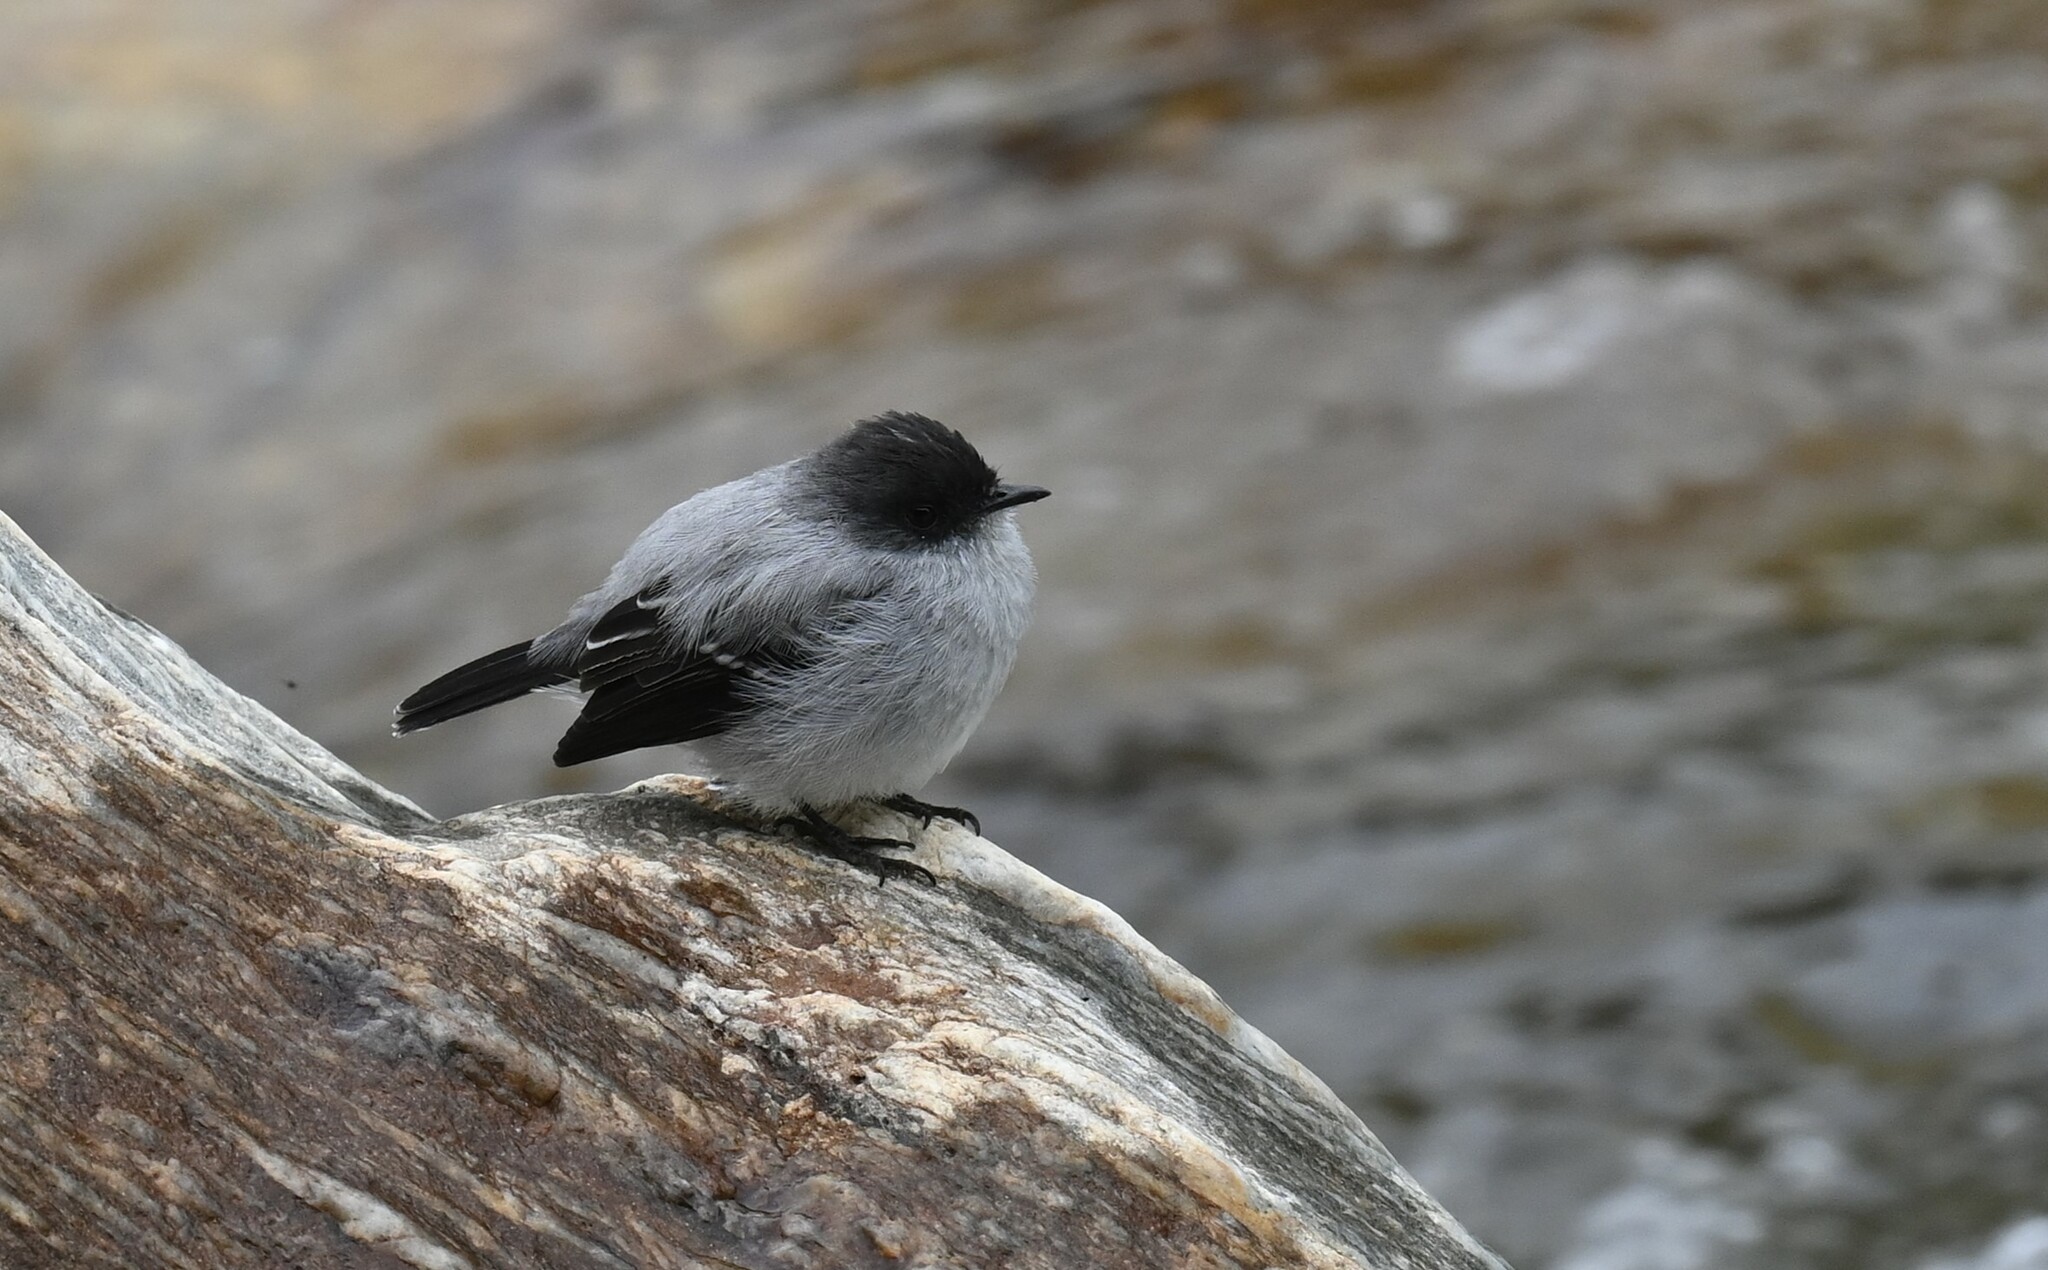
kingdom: Animalia
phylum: Chordata
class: Aves
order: Passeriformes
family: Tyrannidae
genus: Serpophaga
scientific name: Serpophaga cinerea
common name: Torrent tyrannulet
